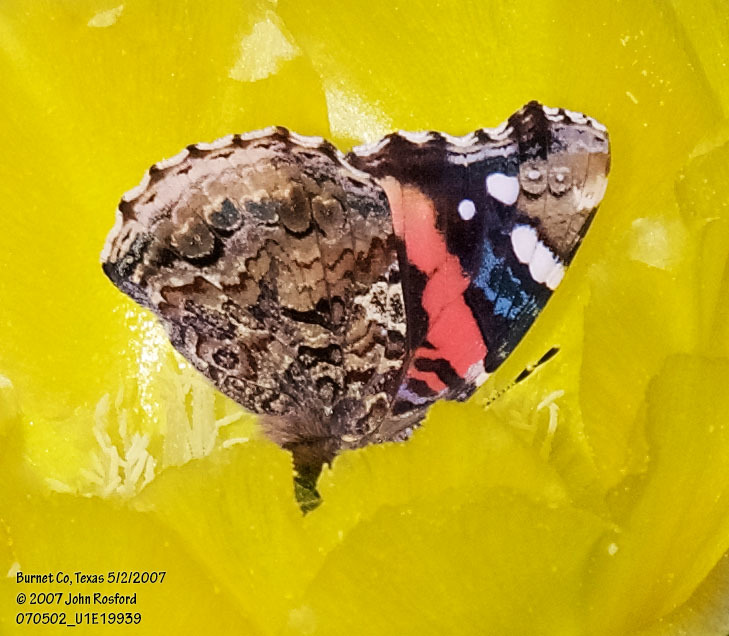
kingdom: Animalia
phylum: Arthropoda
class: Insecta
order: Lepidoptera
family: Nymphalidae
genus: Vanessa
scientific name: Vanessa atalanta
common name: Red admiral
